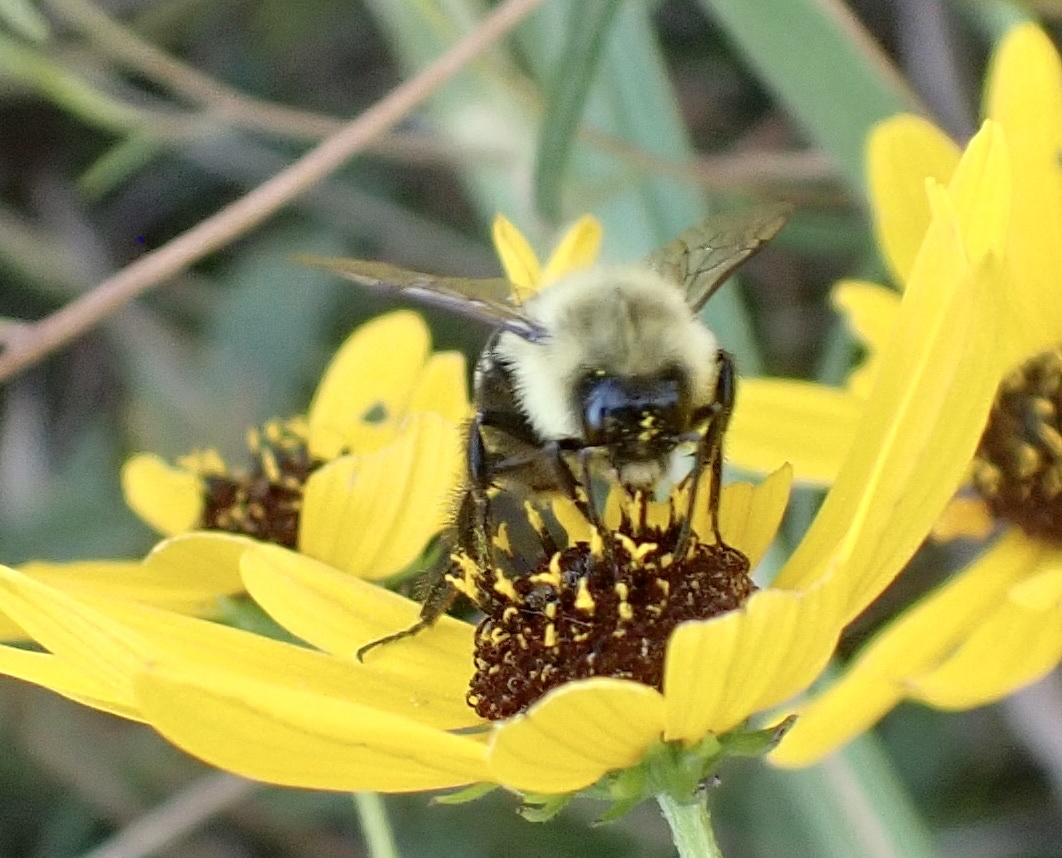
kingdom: Animalia
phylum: Arthropoda
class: Insecta
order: Hymenoptera
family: Apidae
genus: Bombus
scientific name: Bombus impatiens
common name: Common eastern bumble bee
